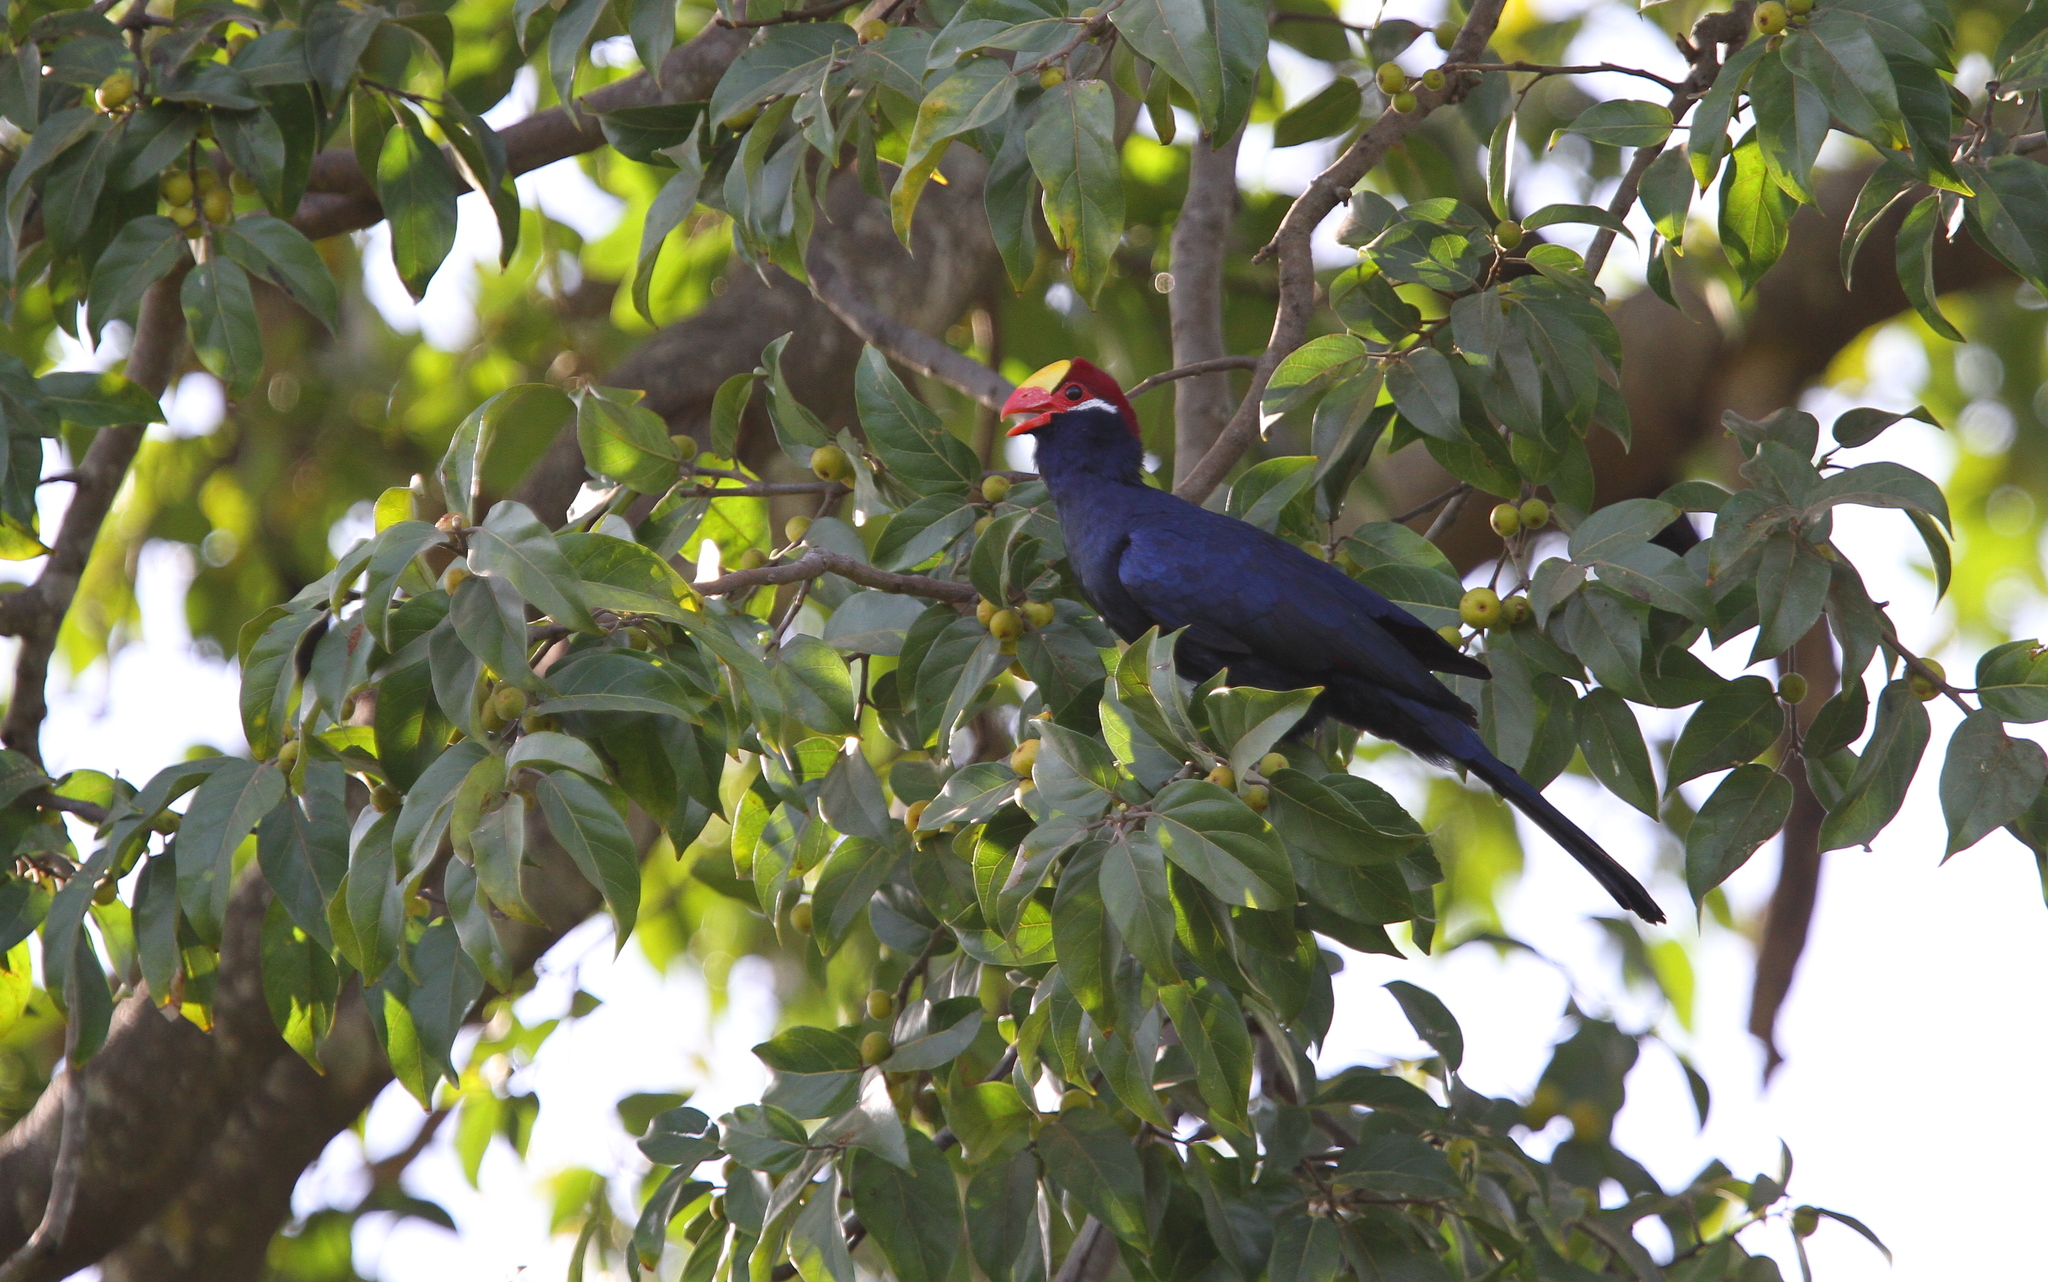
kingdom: Animalia
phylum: Chordata
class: Aves
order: Musophagiformes
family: Musophagidae
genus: Musophaga
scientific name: Musophaga violacea
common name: Violet turaco
